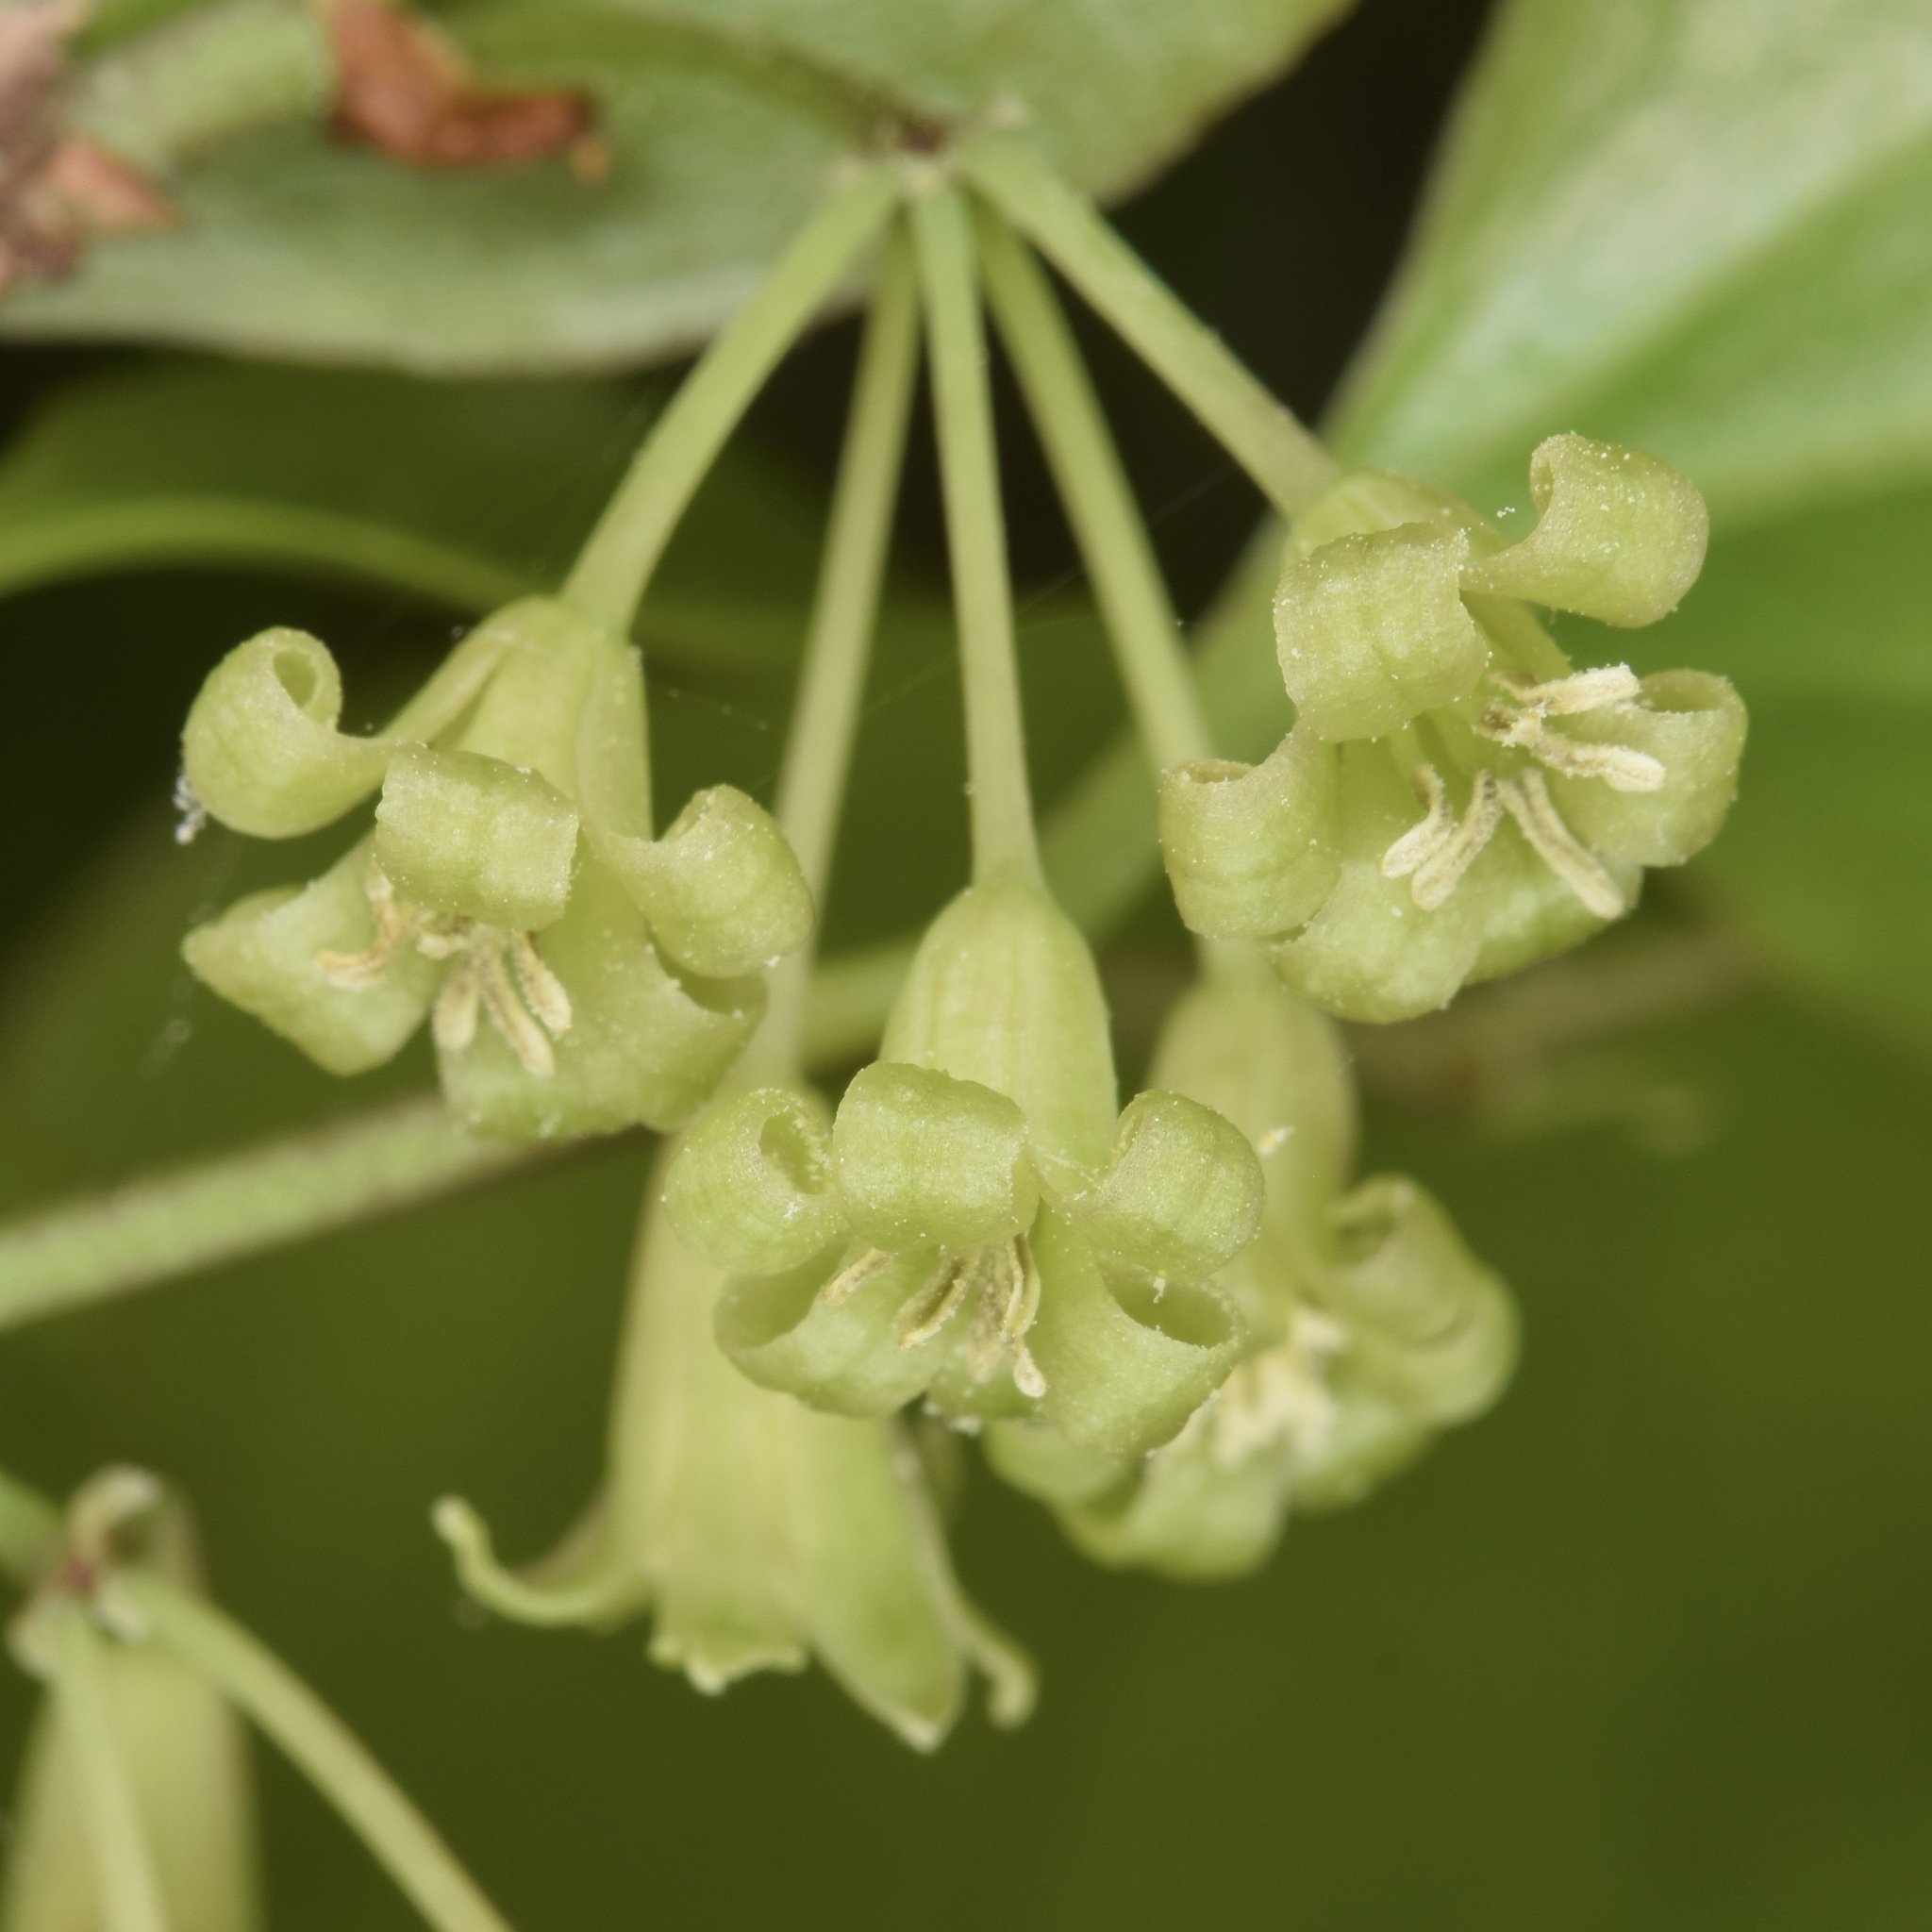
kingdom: Plantae
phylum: Tracheophyta
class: Liliopsida
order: Liliales
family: Smilacaceae
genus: Smilax
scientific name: Smilax maritima
